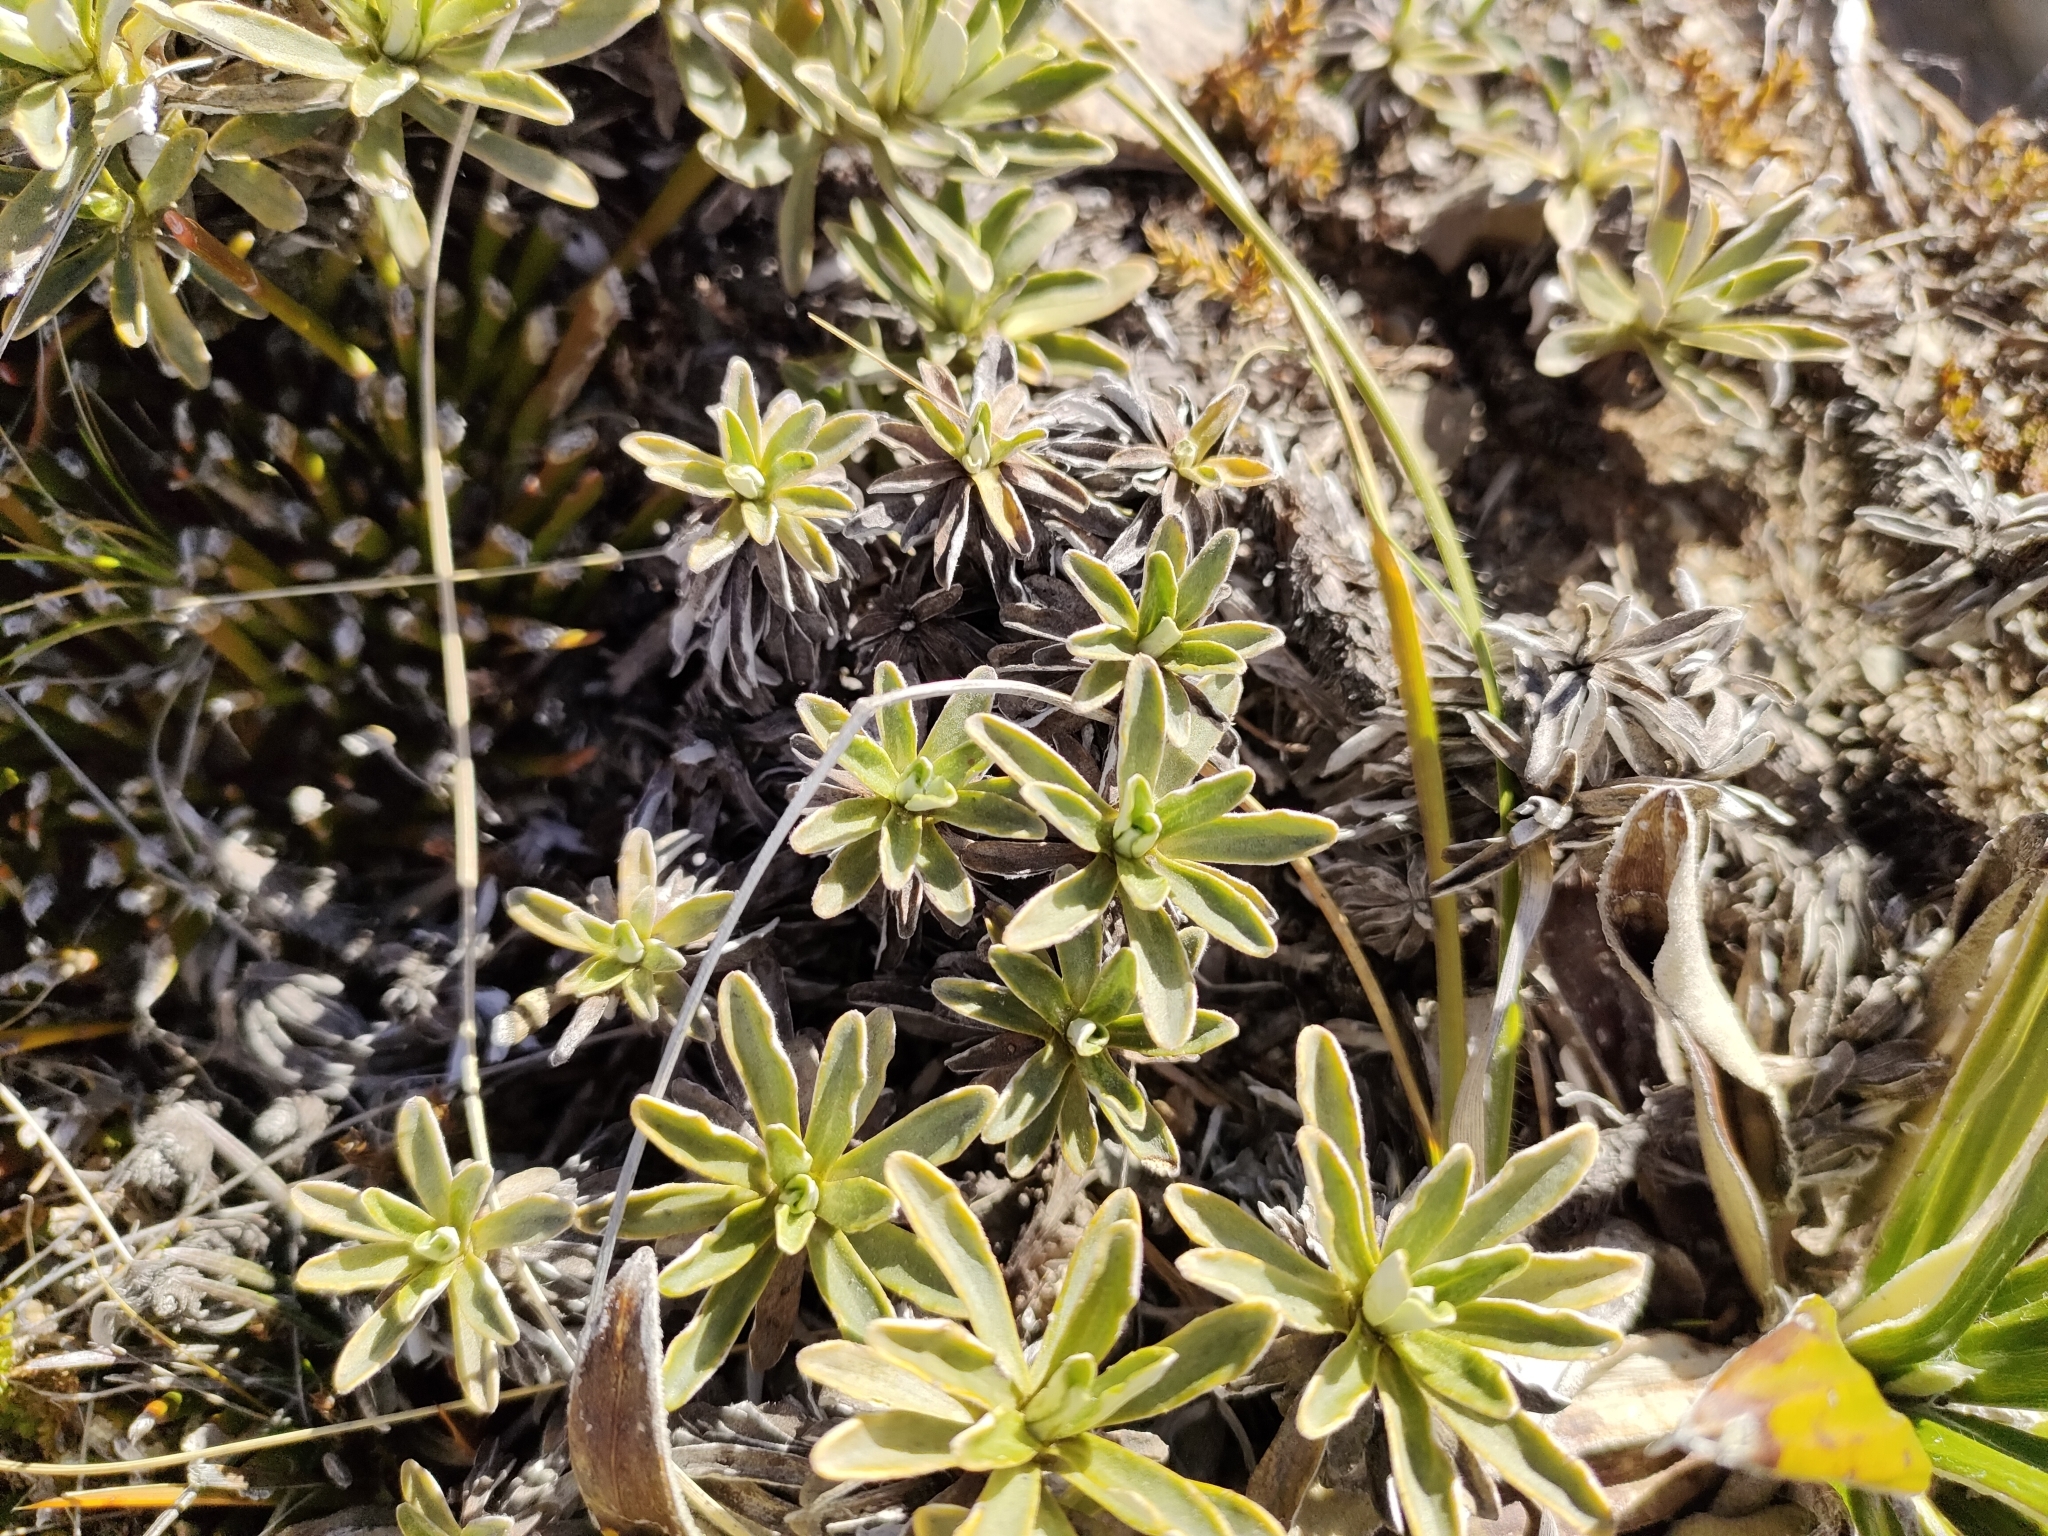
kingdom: Plantae
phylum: Tracheophyta
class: Magnoliopsida
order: Asterales
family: Asteraceae
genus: Celmisia
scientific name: Celmisia angustifolia
